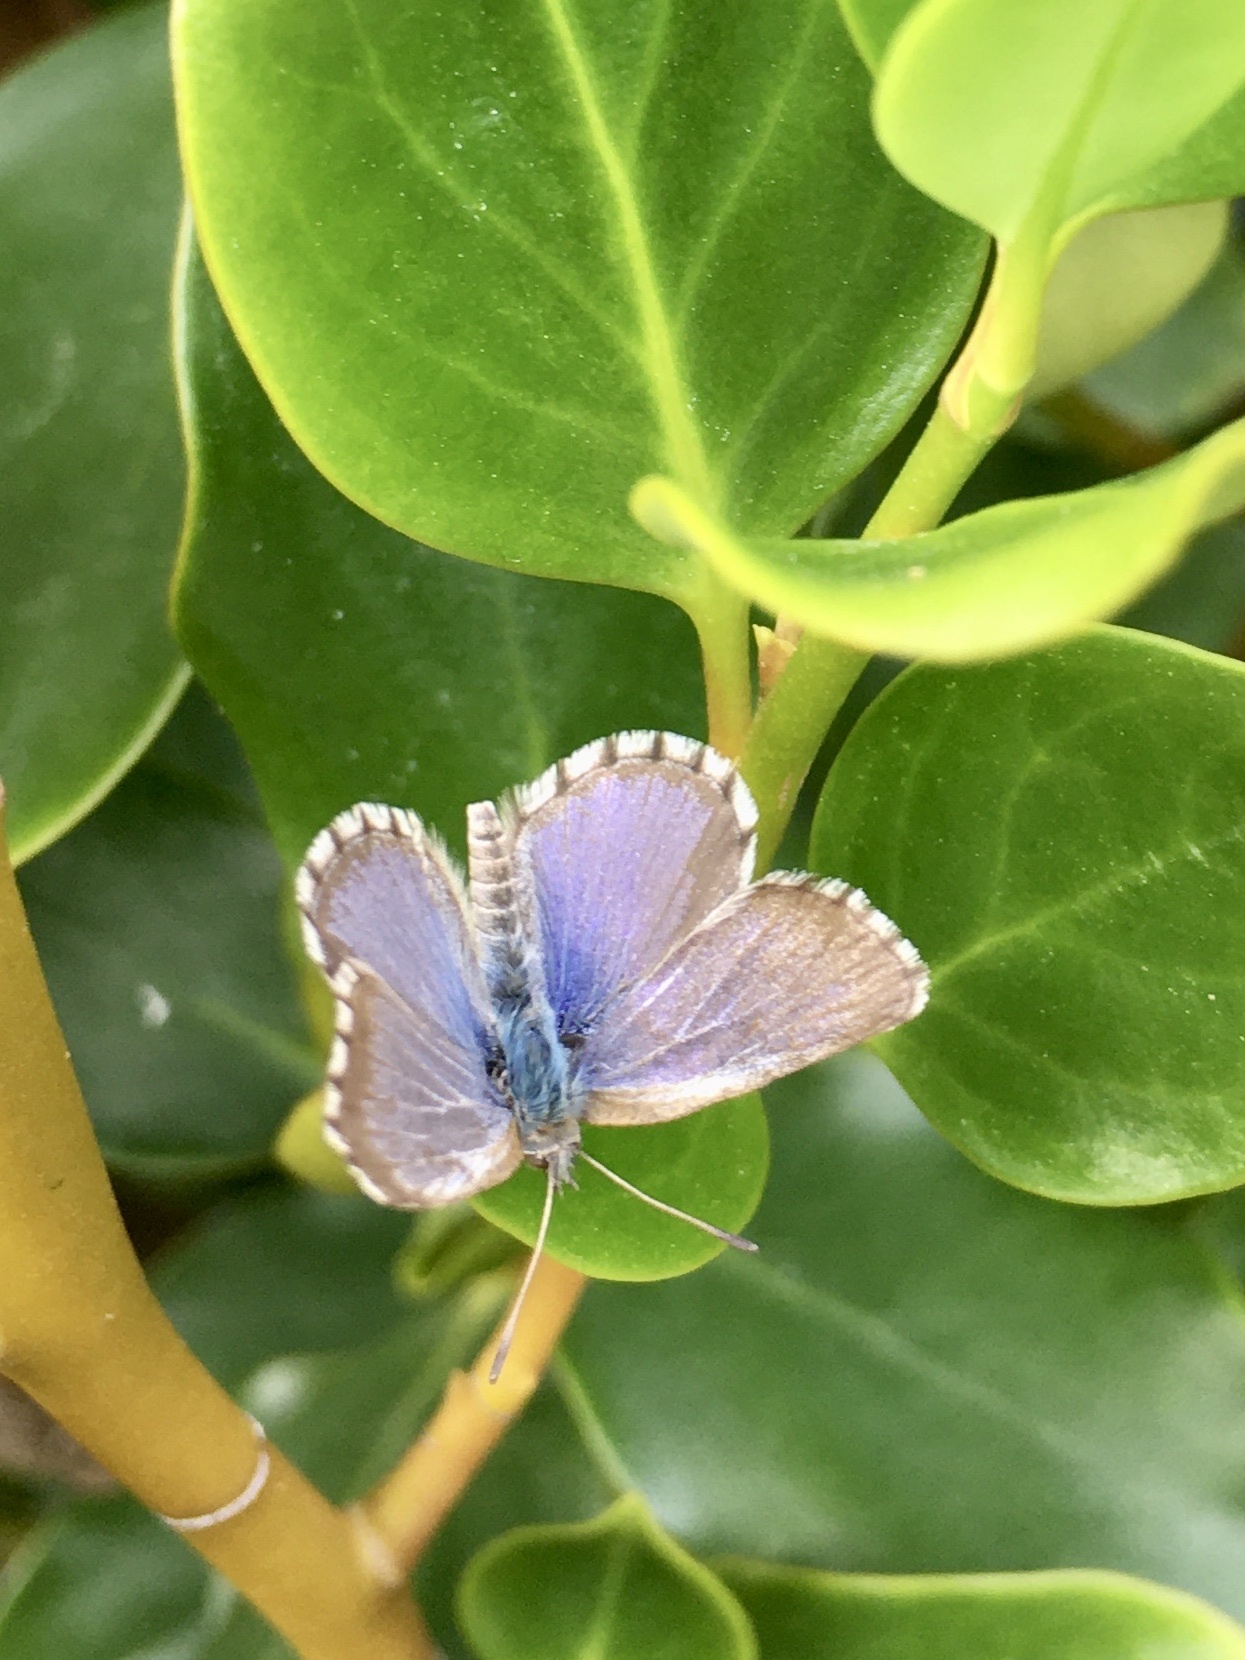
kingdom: Animalia
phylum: Arthropoda
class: Insecta
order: Lepidoptera
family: Lycaenidae
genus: Zizina
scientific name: Zizina oxleyi
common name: Southern blue
